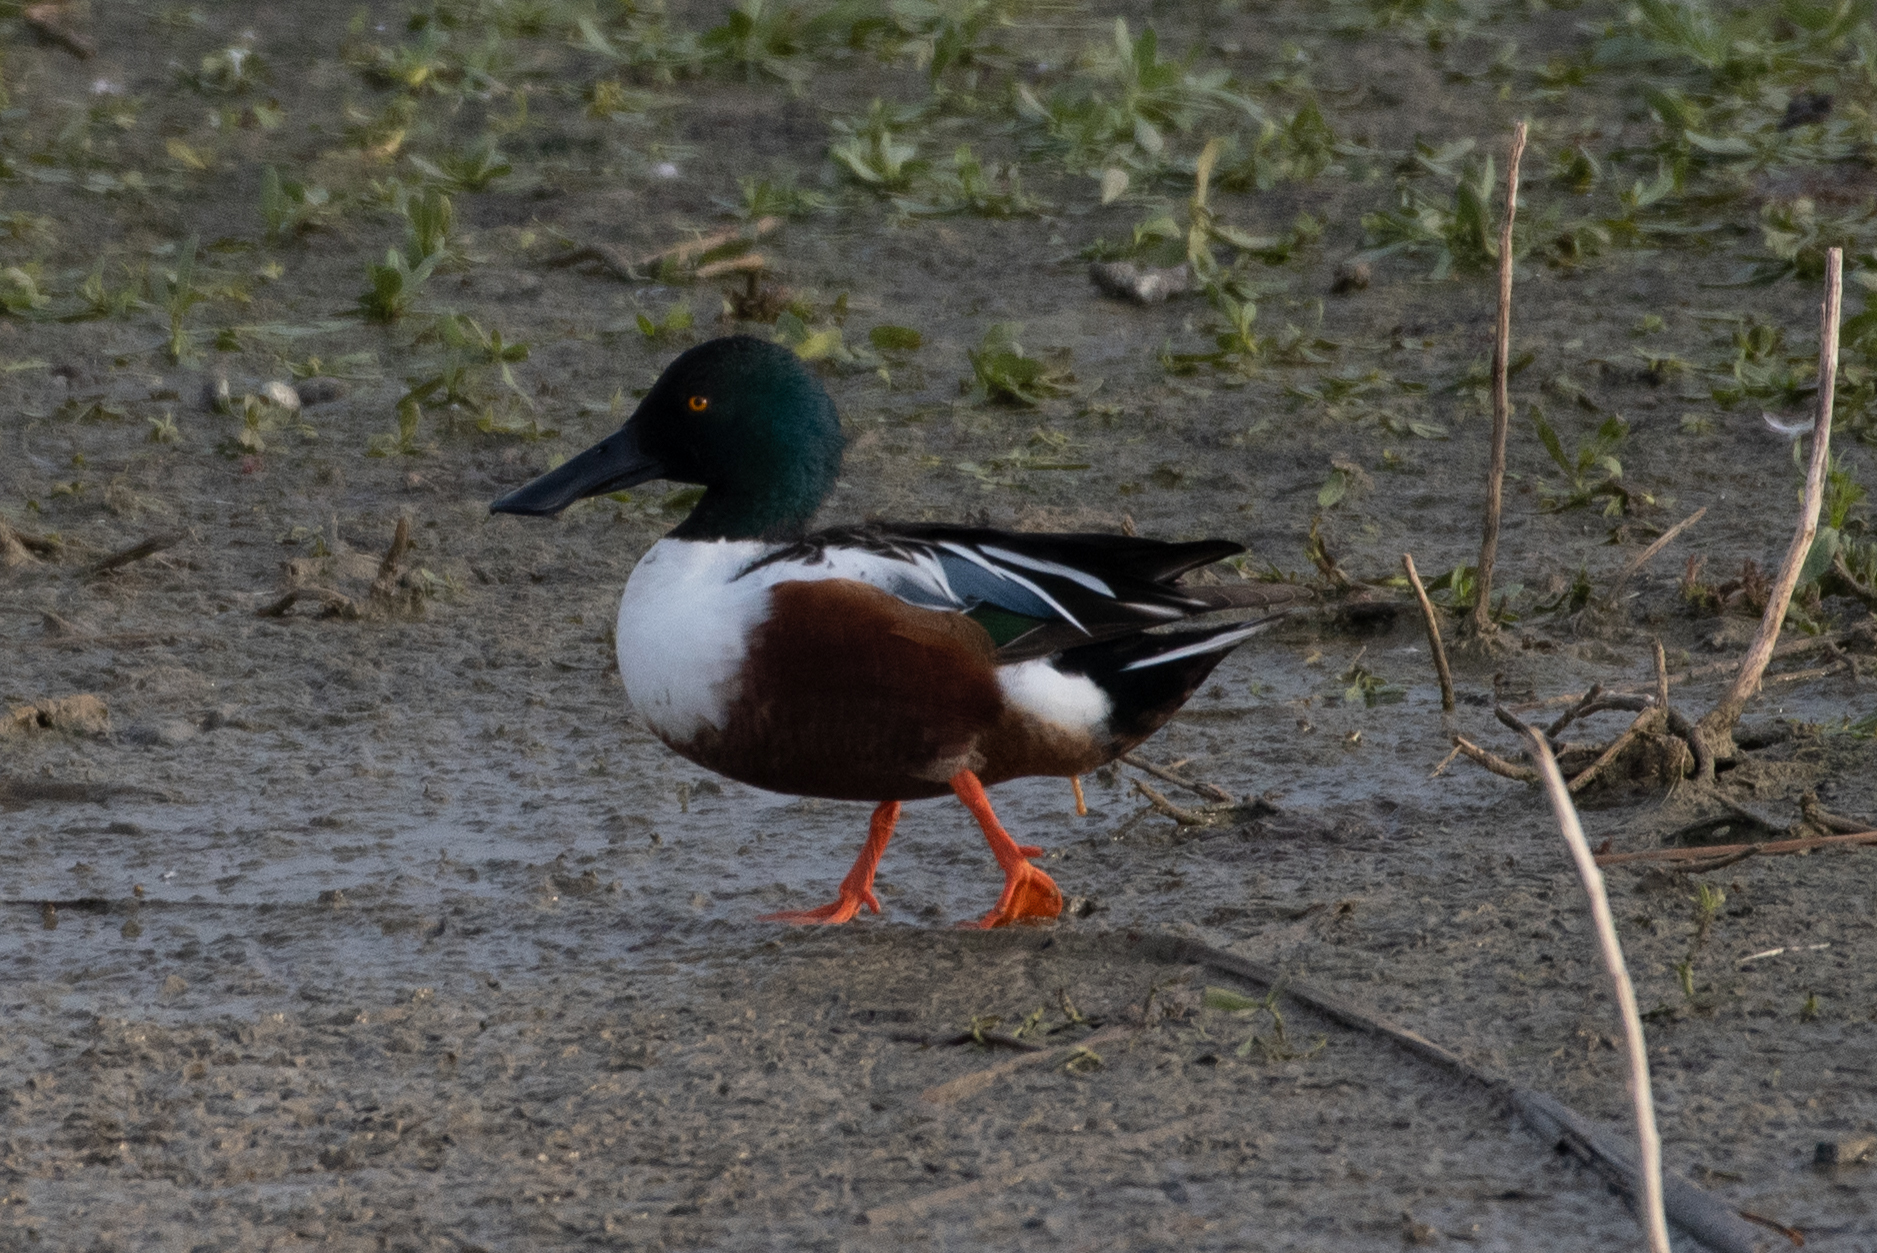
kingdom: Animalia
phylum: Chordata
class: Aves
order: Anseriformes
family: Anatidae
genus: Spatula
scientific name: Spatula clypeata
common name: Northern shoveler
